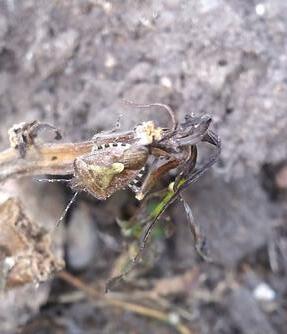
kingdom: Animalia
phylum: Arthropoda
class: Insecta
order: Hemiptera
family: Pentatomidae
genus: Dolycoris
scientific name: Dolycoris baccarum
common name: Sloe bug
